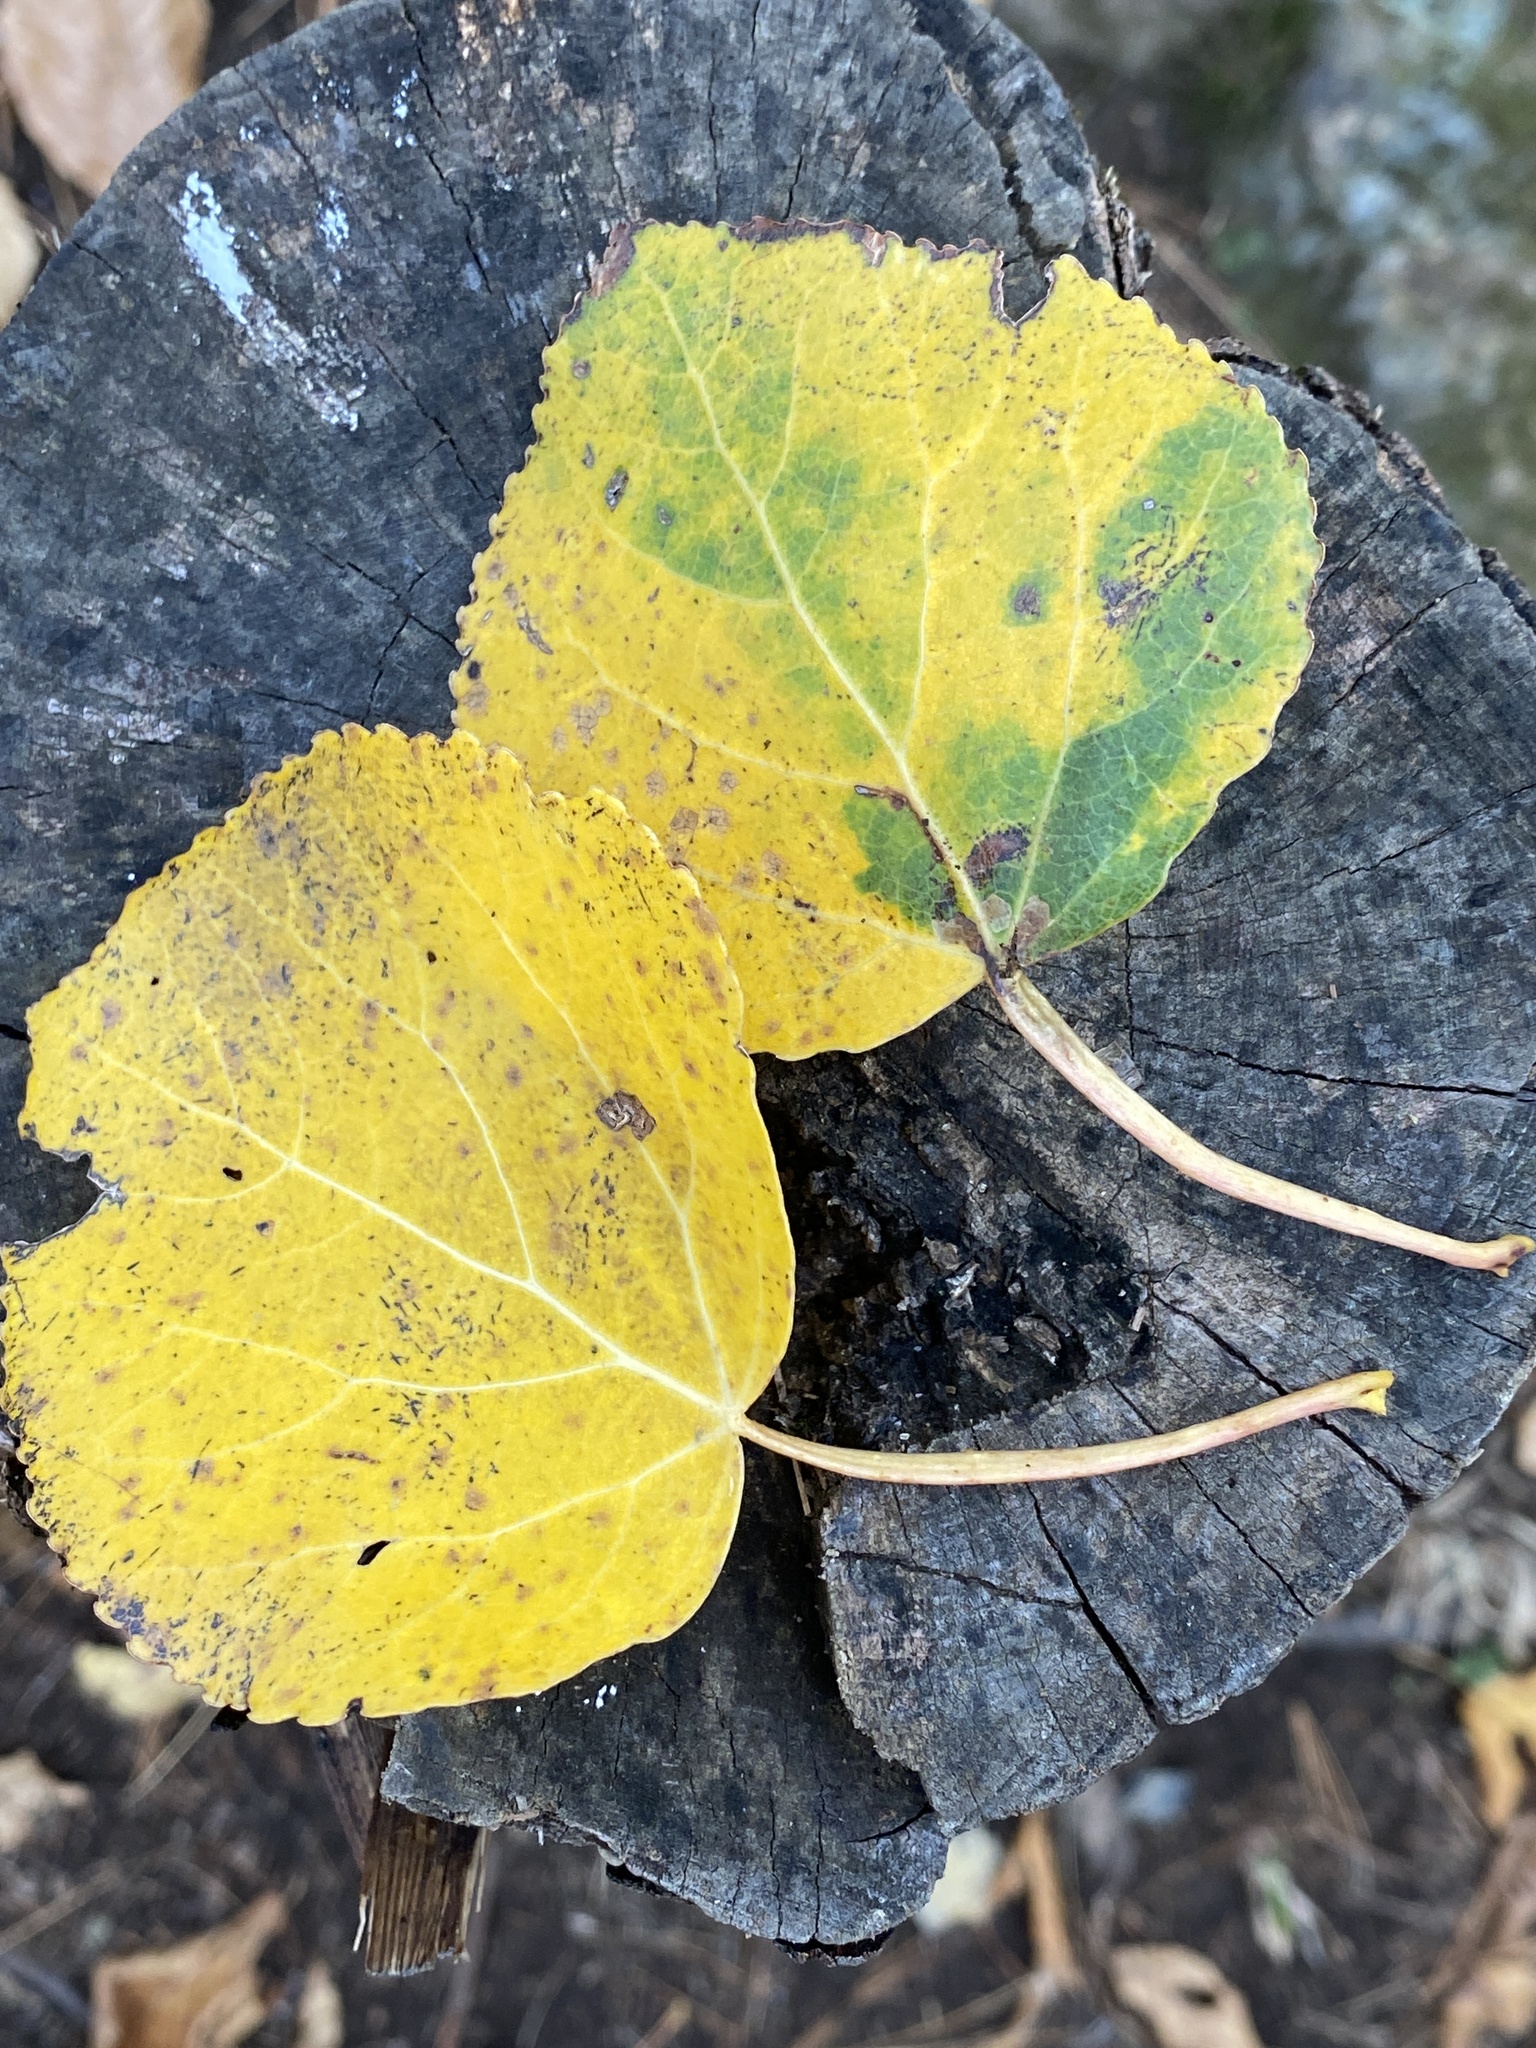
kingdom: Plantae
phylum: Tracheophyta
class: Magnoliopsida
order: Malpighiales
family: Salicaceae
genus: Populus
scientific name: Populus tremuloides
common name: Quaking aspen
